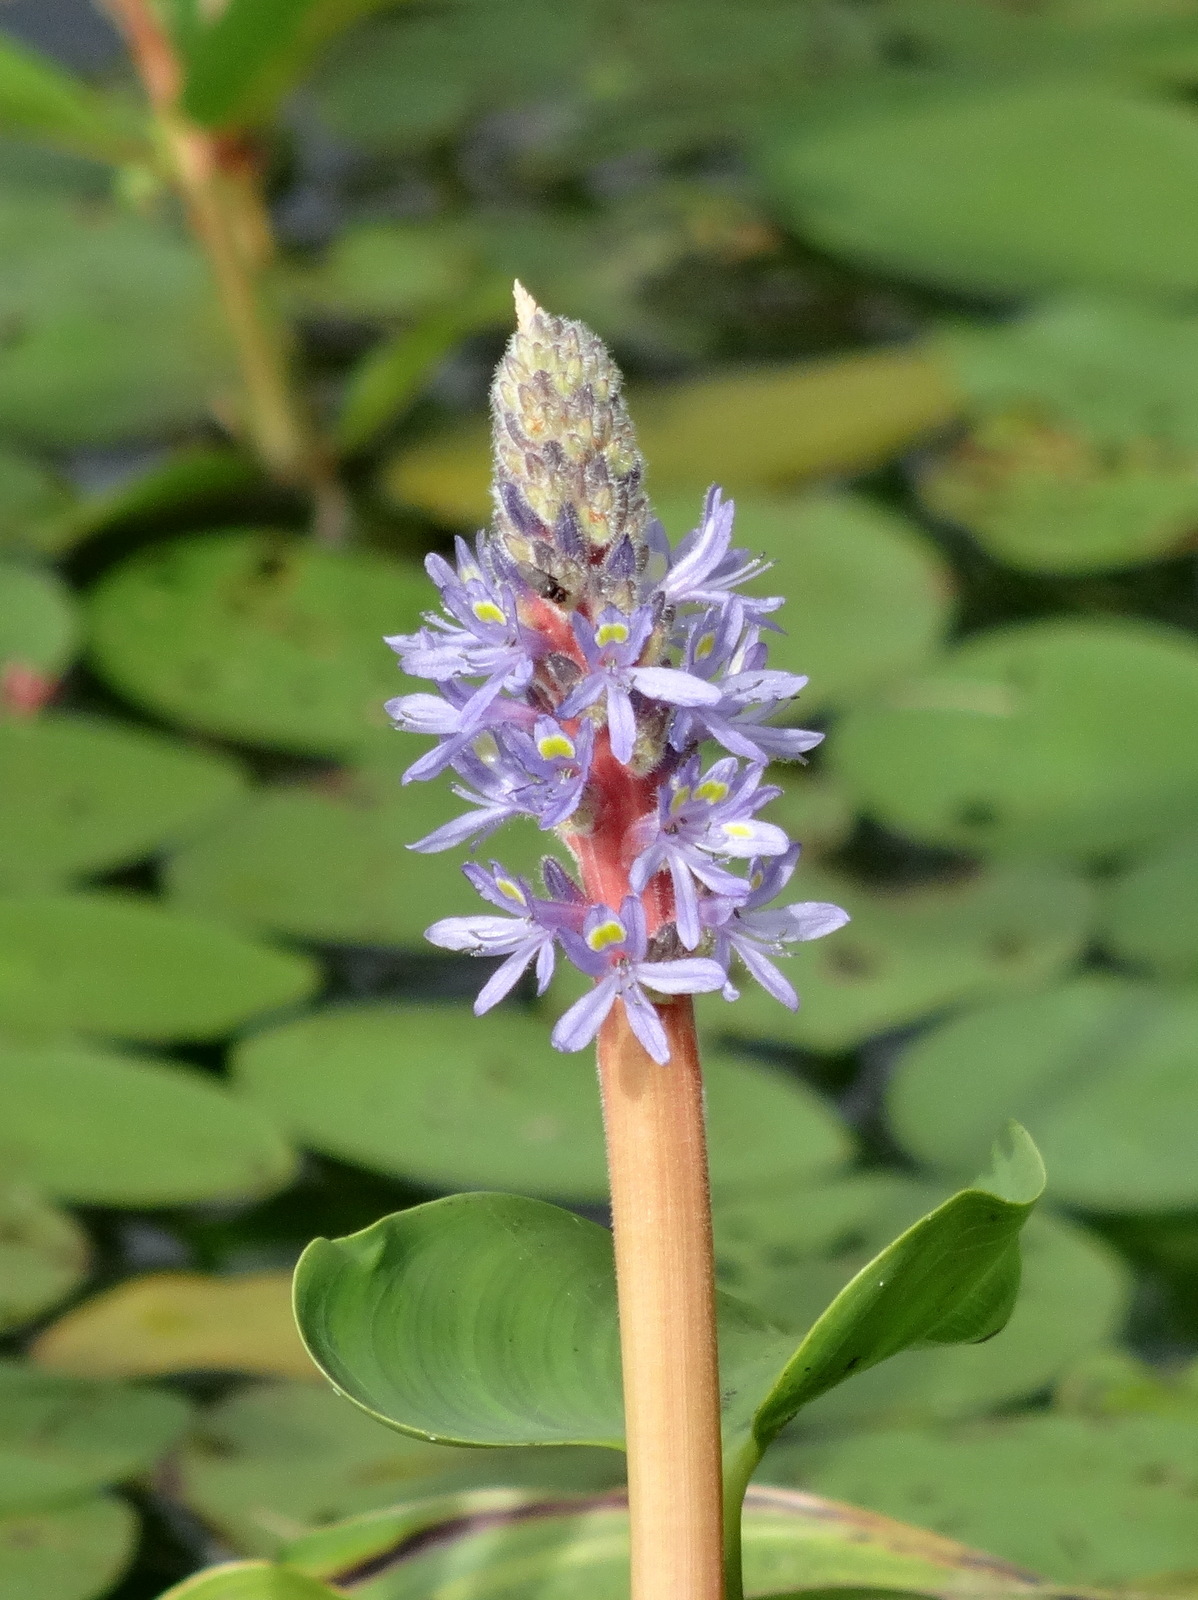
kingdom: Plantae
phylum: Tracheophyta
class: Liliopsida
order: Commelinales
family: Pontederiaceae
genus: Pontederia
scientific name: Pontederia cordata
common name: Pickerelweed
